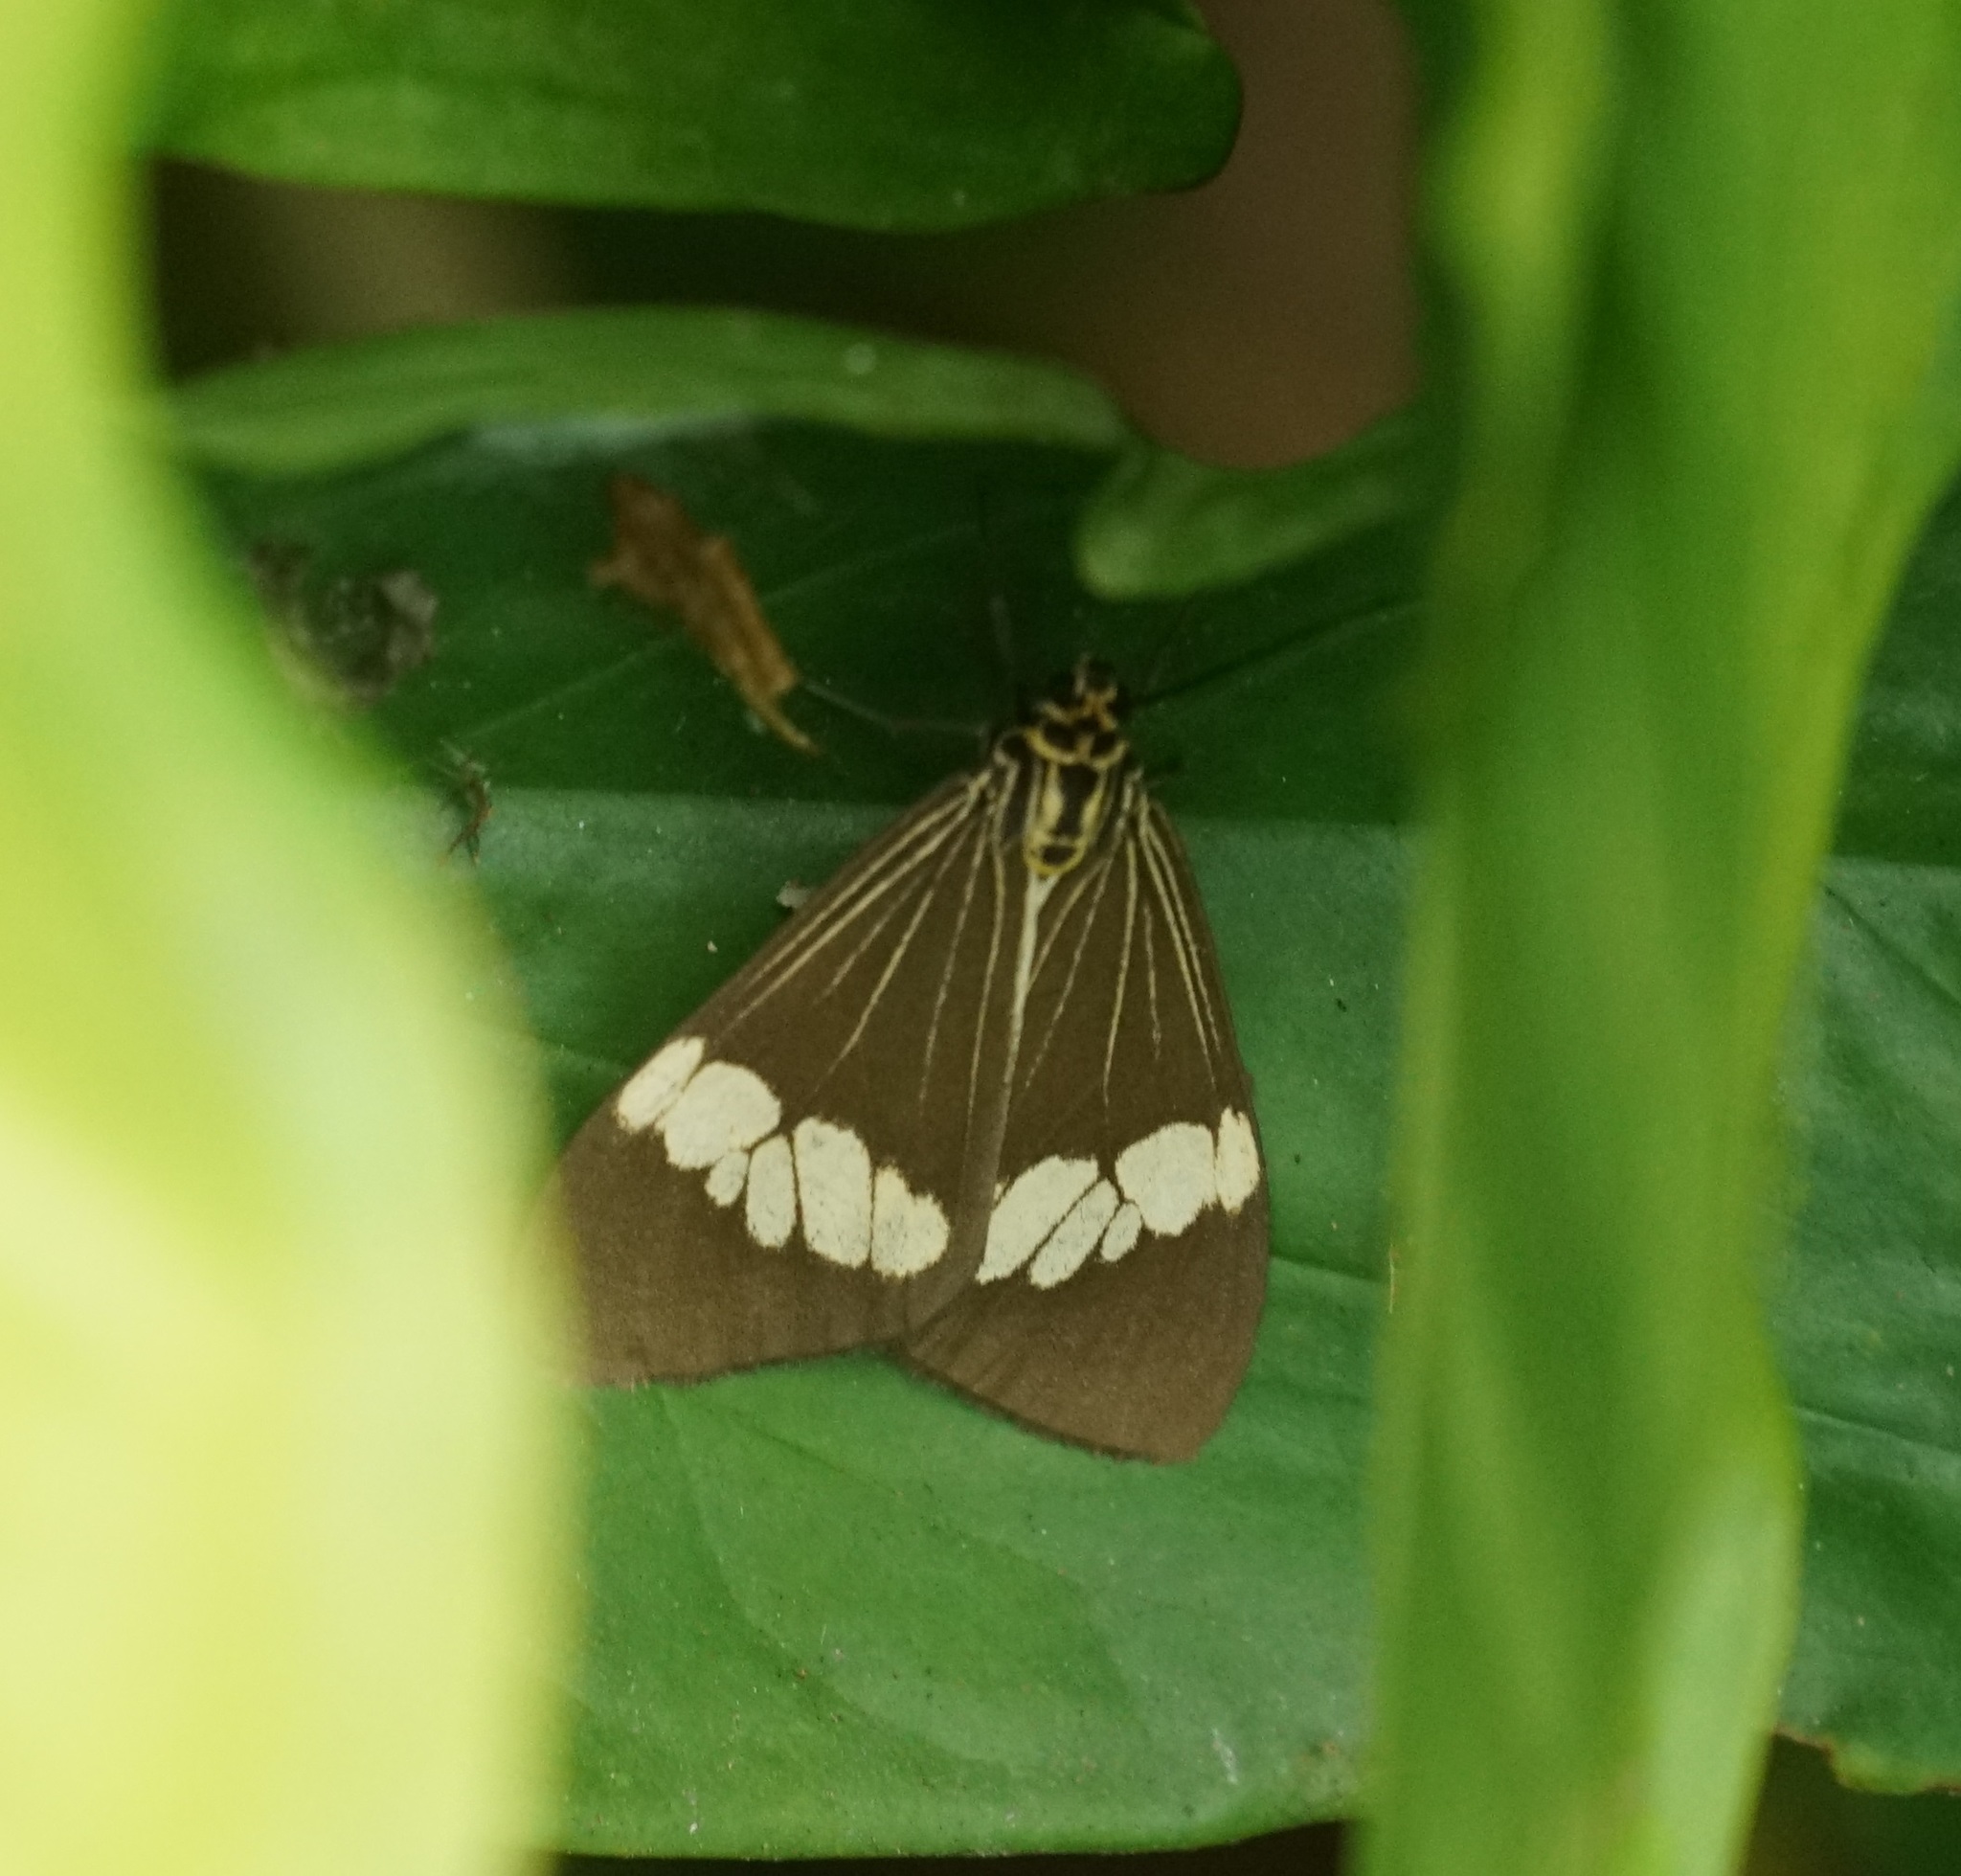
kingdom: Animalia
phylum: Arthropoda
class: Insecta
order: Lepidoptera
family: Erebidae
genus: Nyctemera
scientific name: Nyctemera baulus
